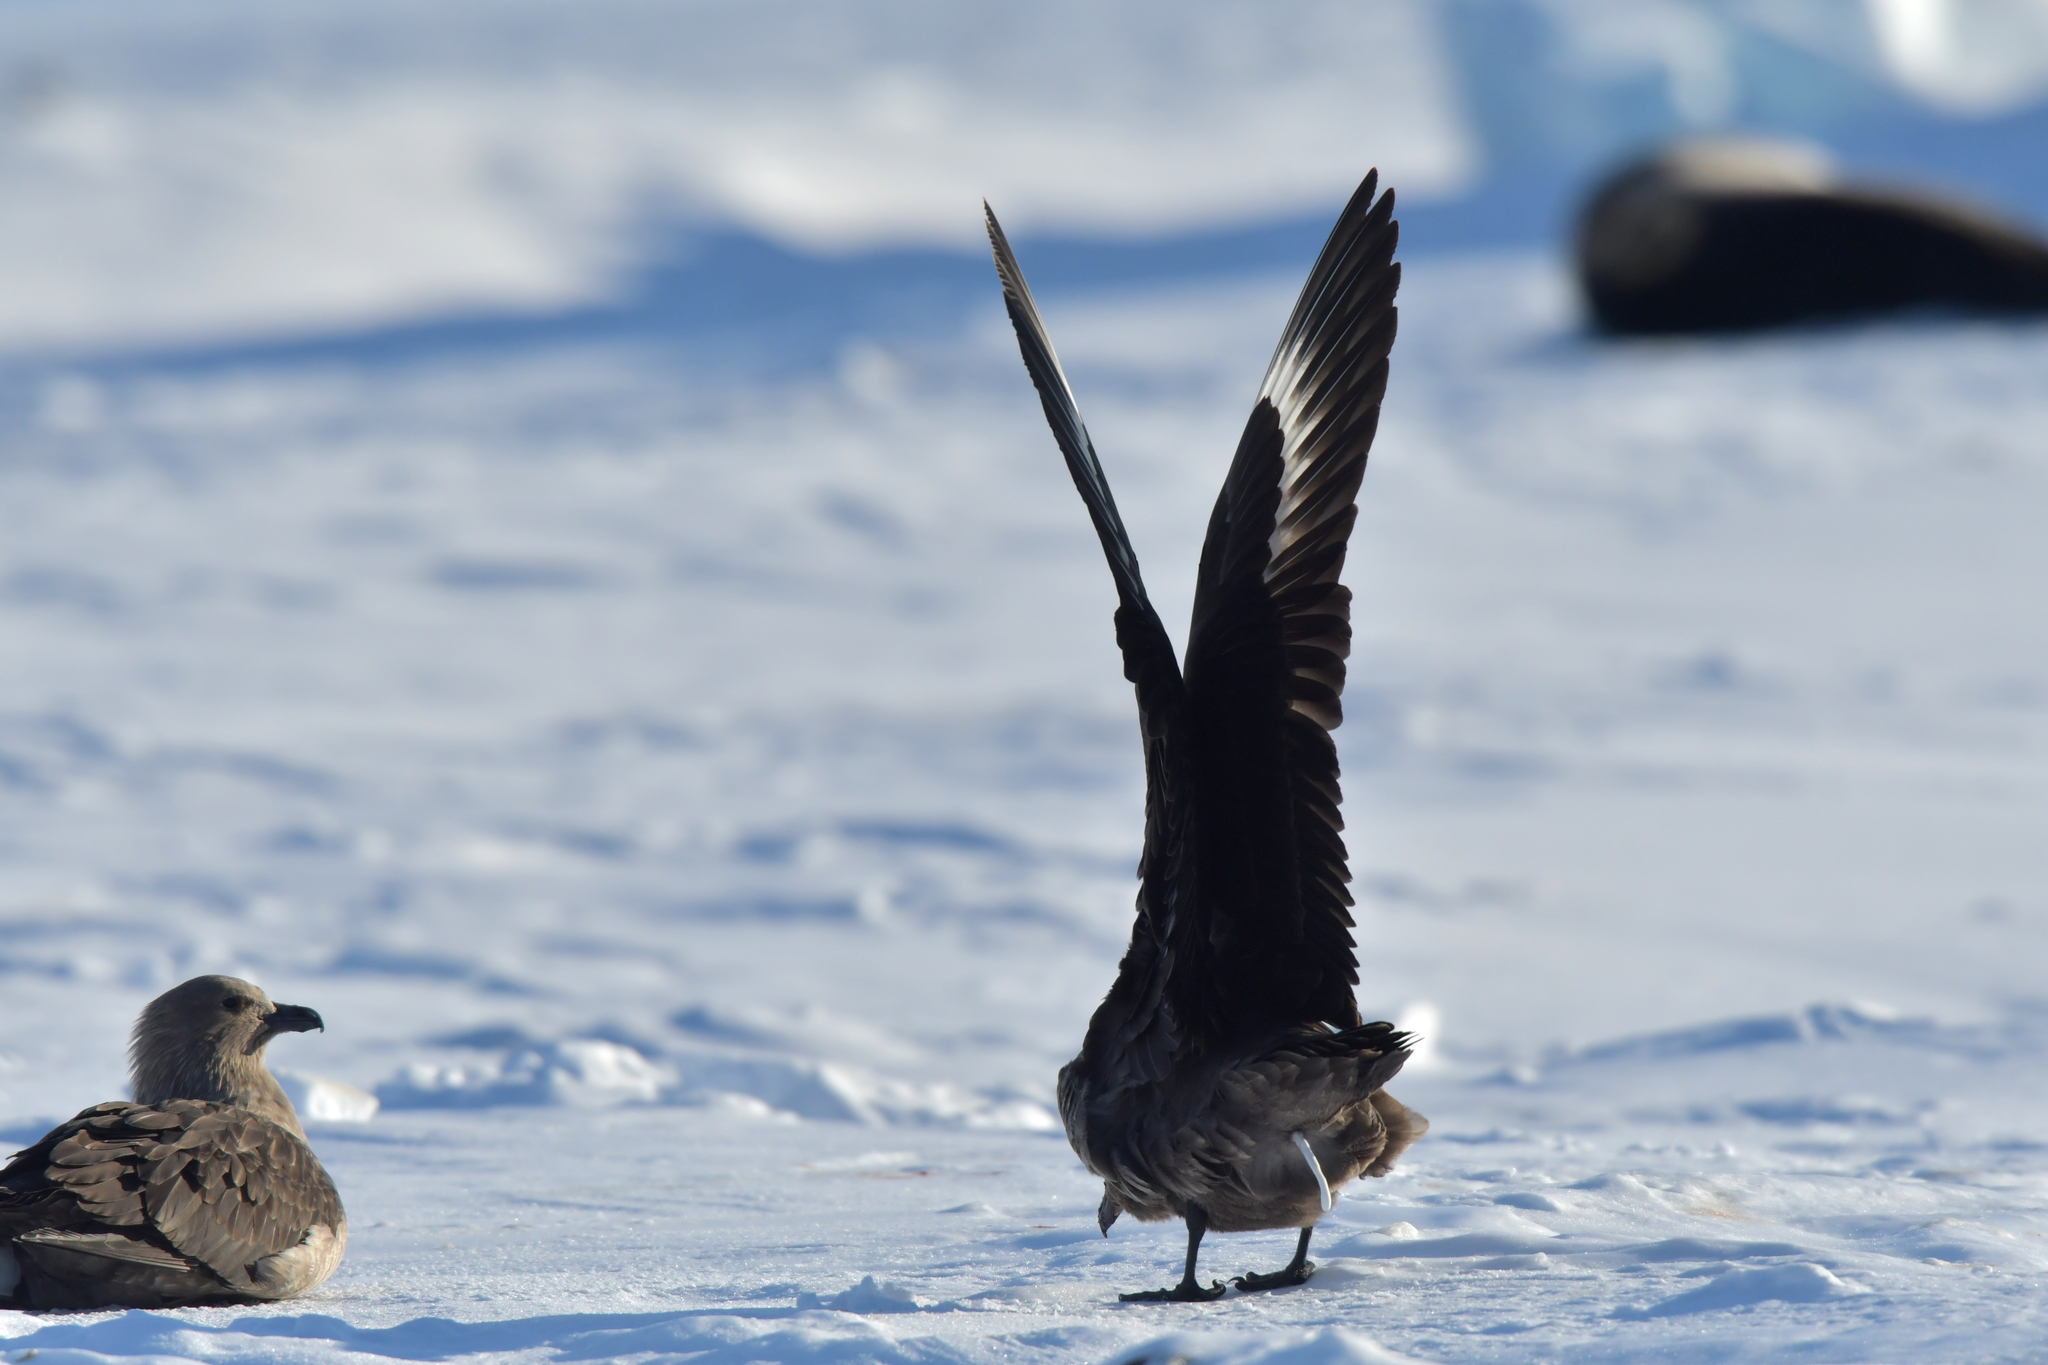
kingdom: Animalia
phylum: Chordata
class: Aves
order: Charadriiformes
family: Stercorariidae
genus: Stercorarius
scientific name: Stercorarius maccormicki
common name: South polar skua
